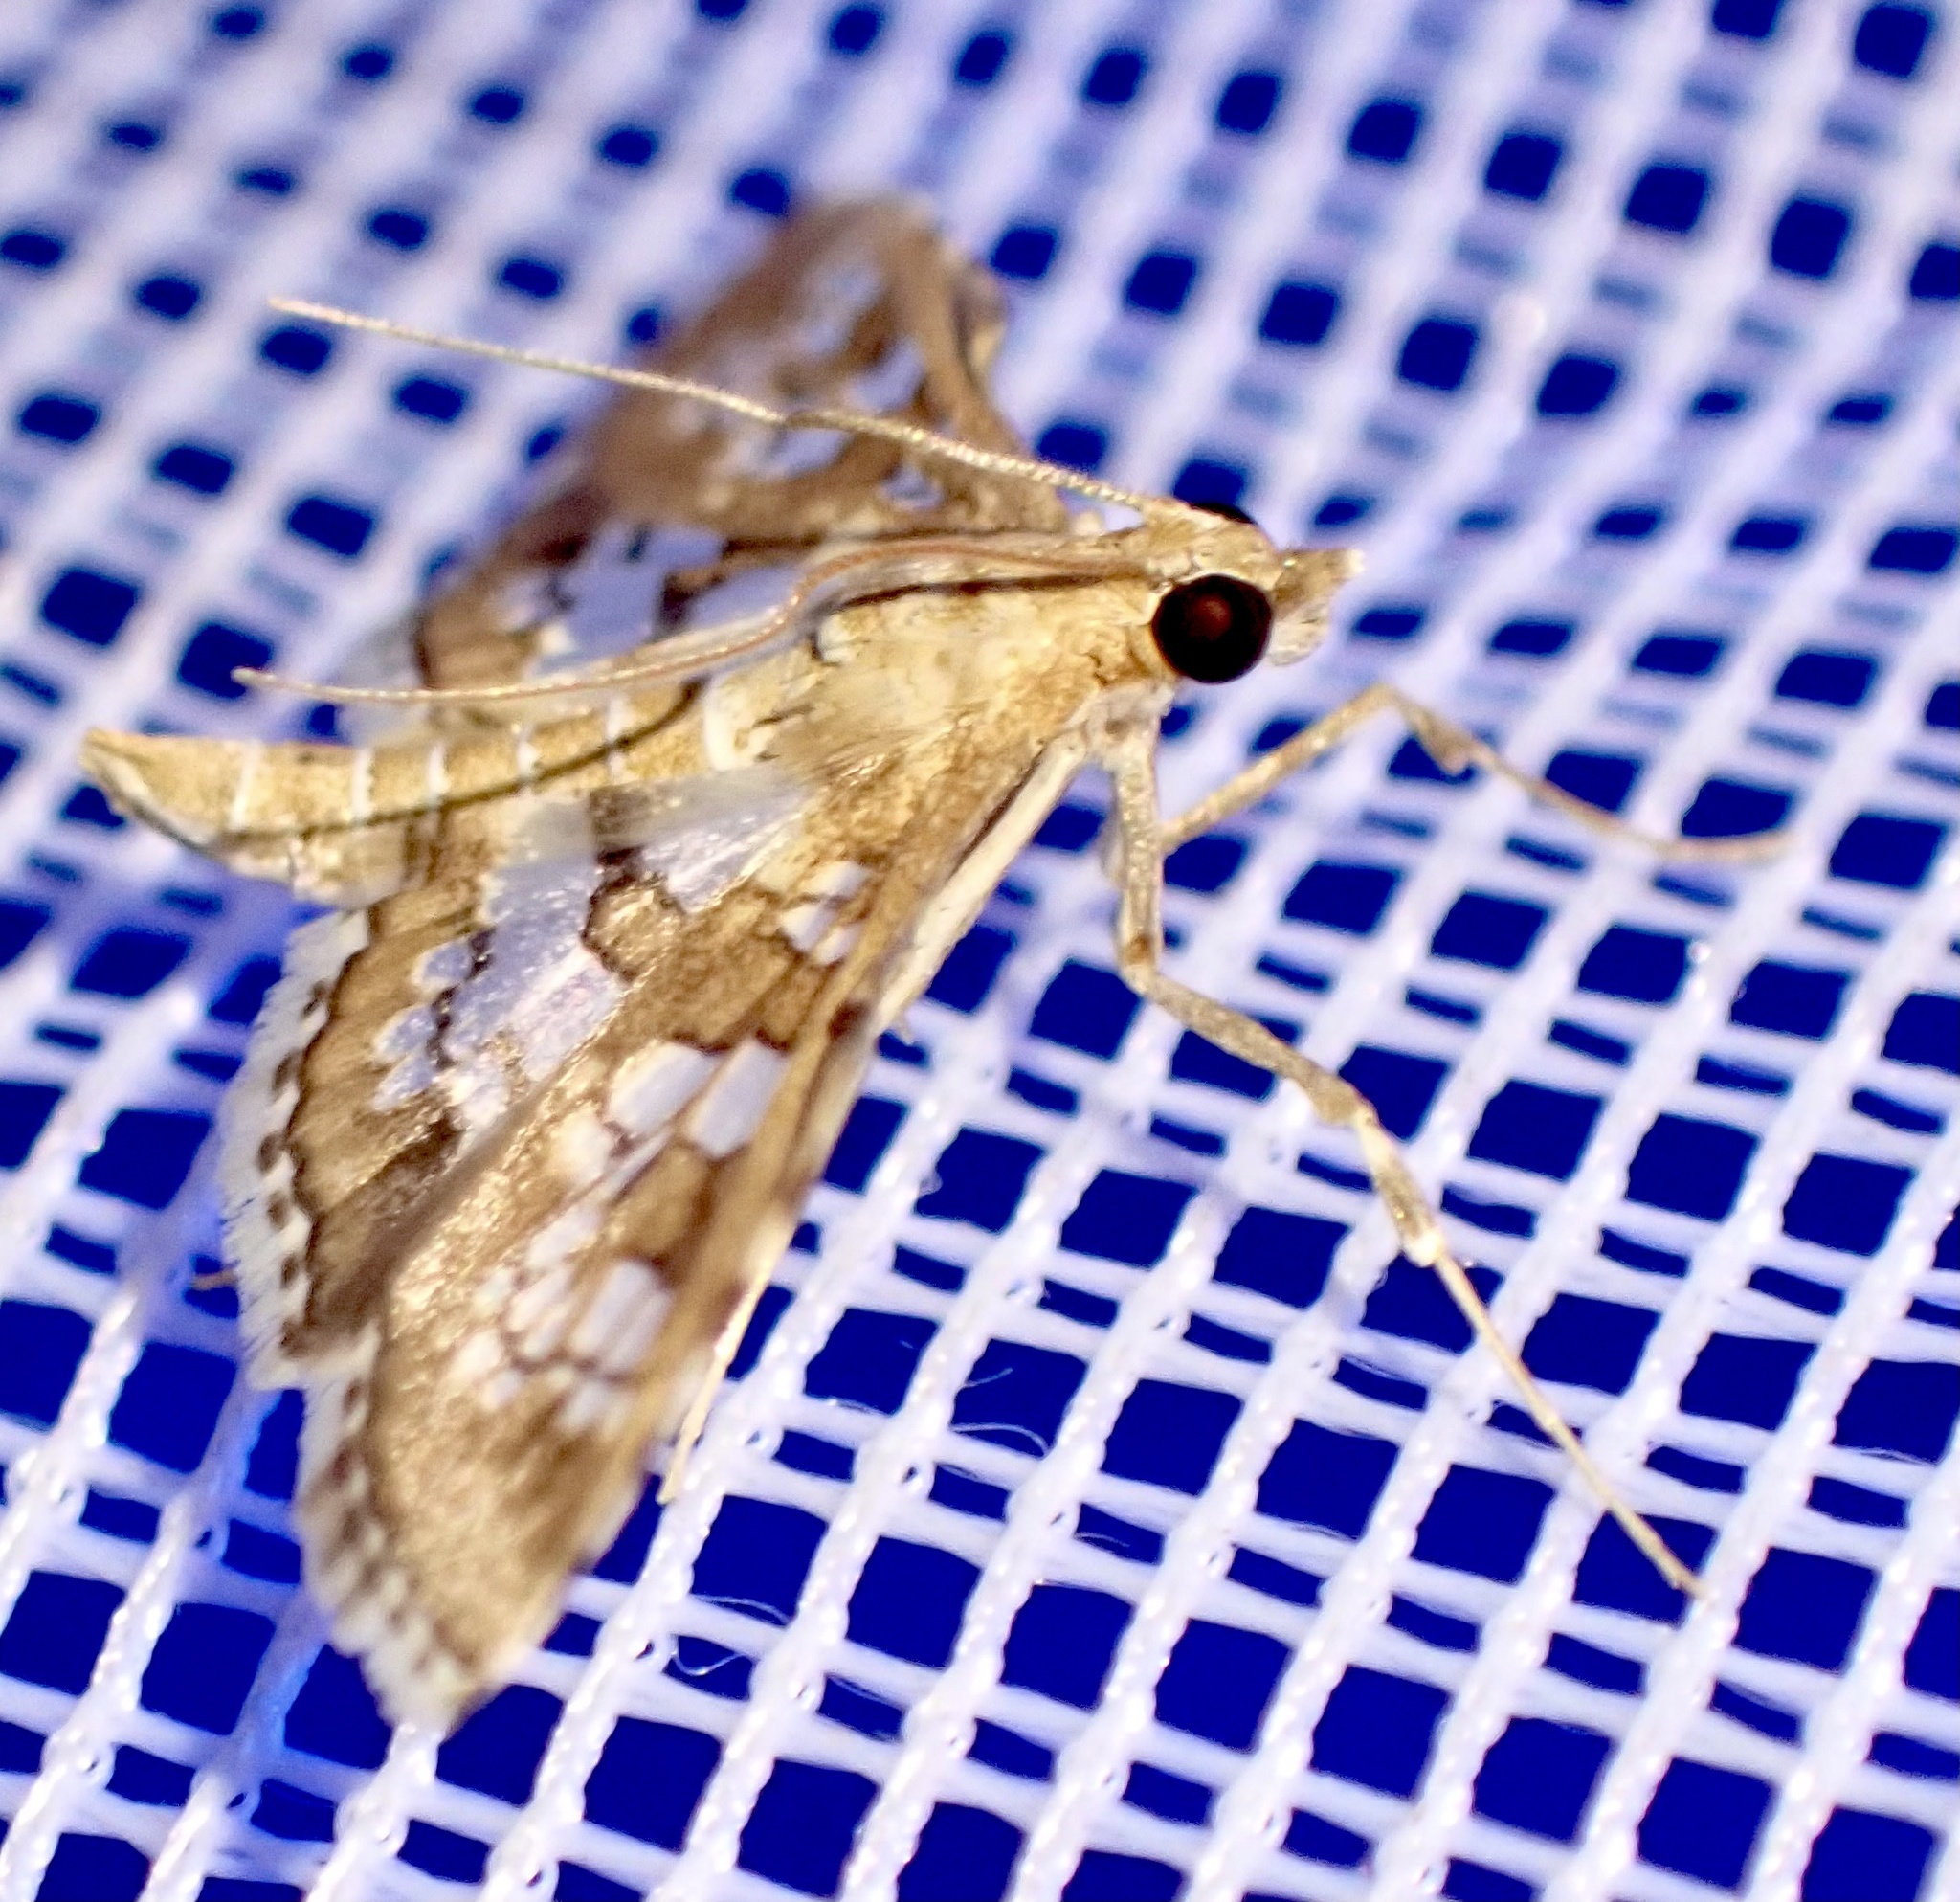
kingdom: Animalia
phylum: Arthropoda
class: Insecta
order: Lepidoptera
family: Crambidae
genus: Sameodes
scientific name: Sameodes cancellalis
